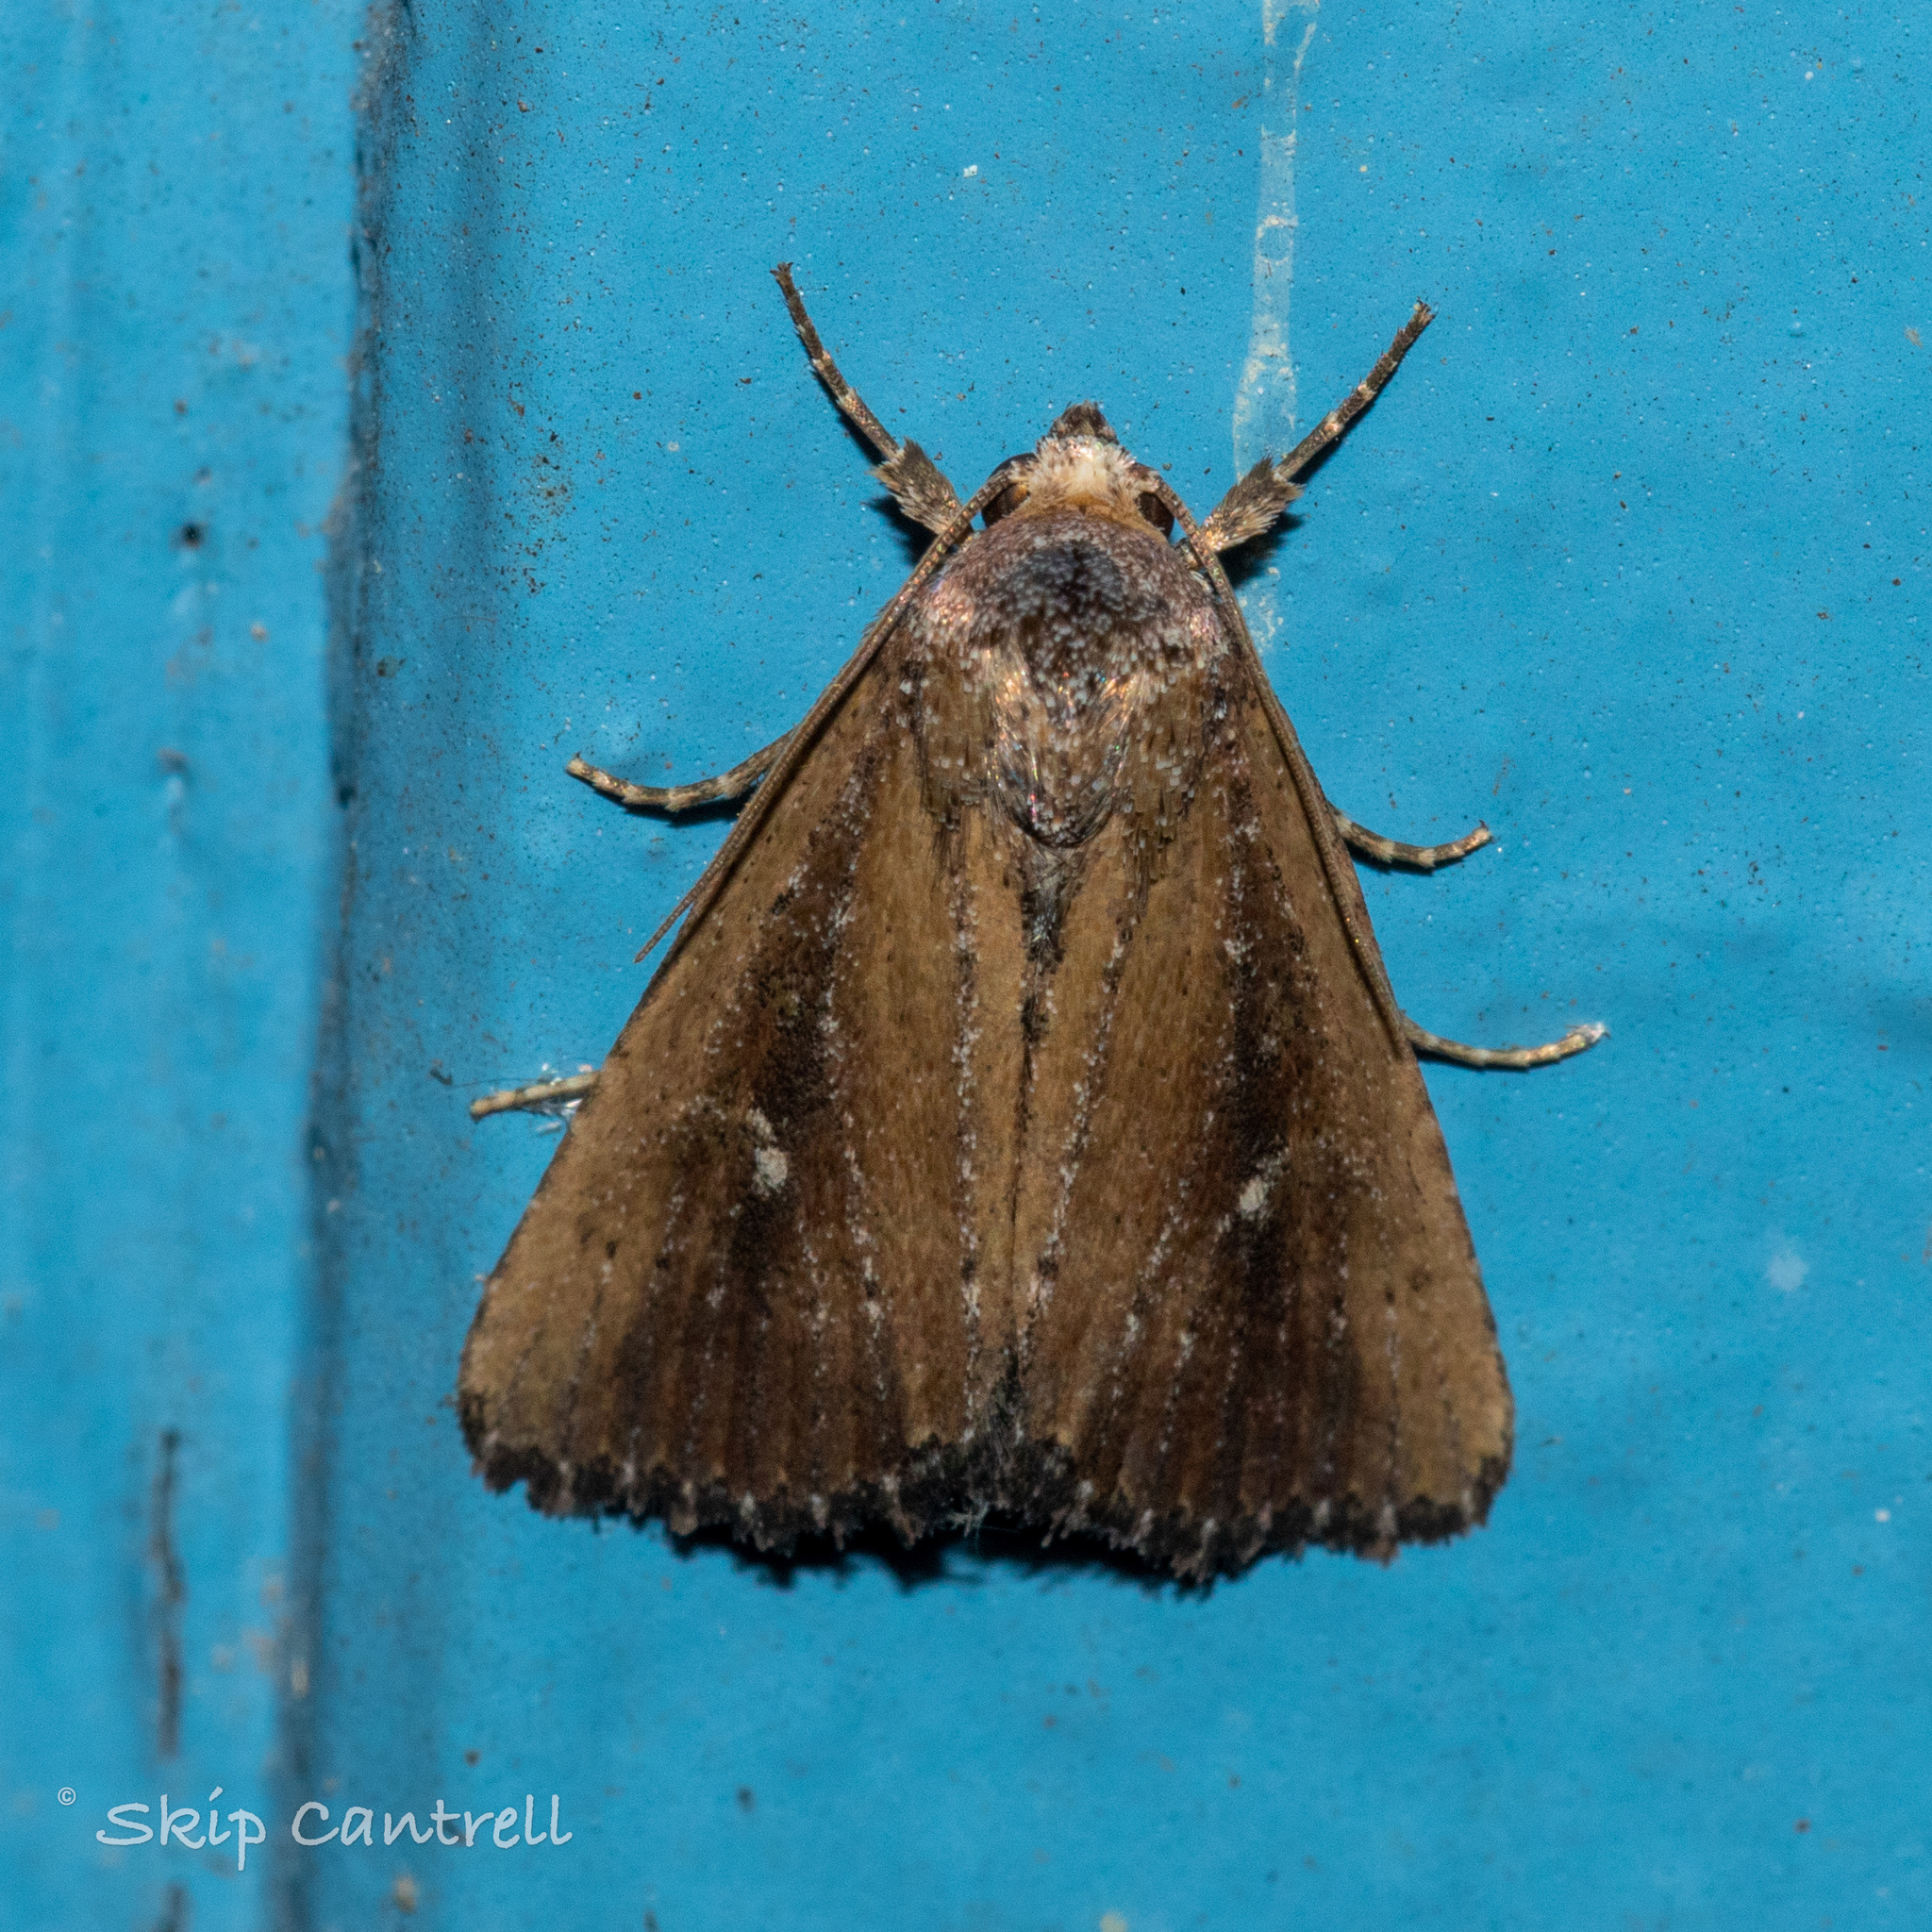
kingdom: Animalia
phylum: Arthropoda
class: Insecta
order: Lepidoptera
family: Noctuidae
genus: Condica
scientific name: Condica videns
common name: White-dotted groundling
